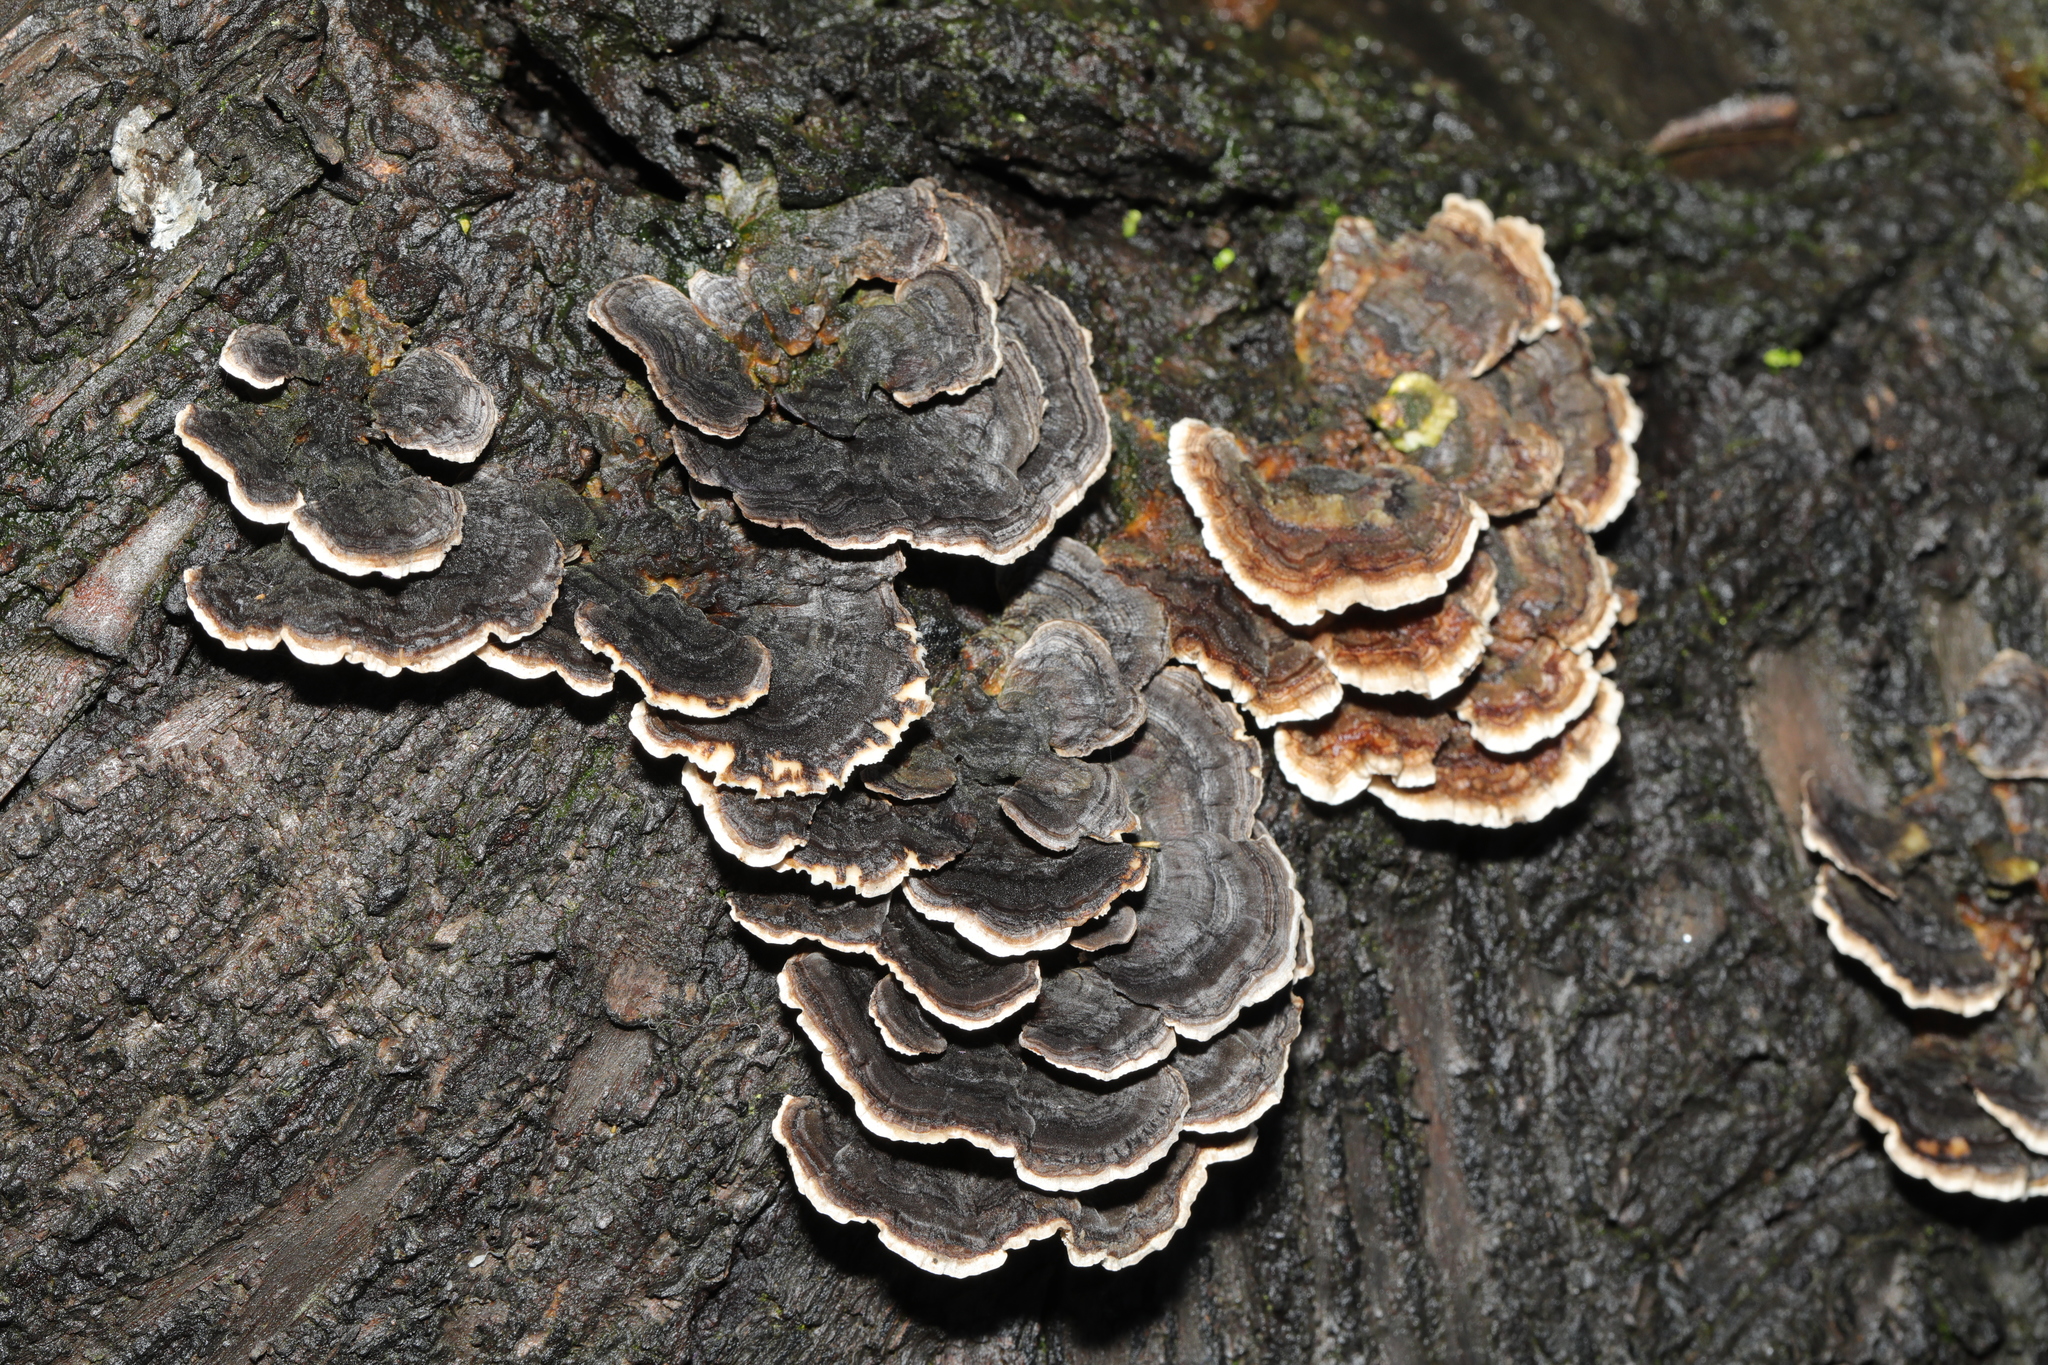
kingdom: Fungi
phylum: Basidiomycota
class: Agaricomycetes
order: Polyporales
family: Polyporaceae
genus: Trametes
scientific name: Trametes versicolor
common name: Turkeytail
